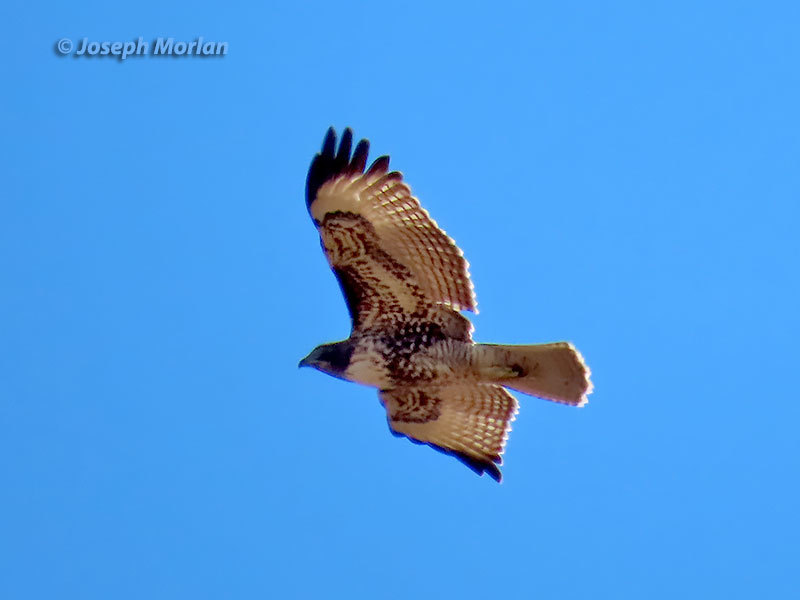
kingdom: Animalia
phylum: Chordata
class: Aves
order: Accipitriformes
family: Accipitridae
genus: Buteo
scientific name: Buteo jamaicensis
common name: Red-tailed hawk
